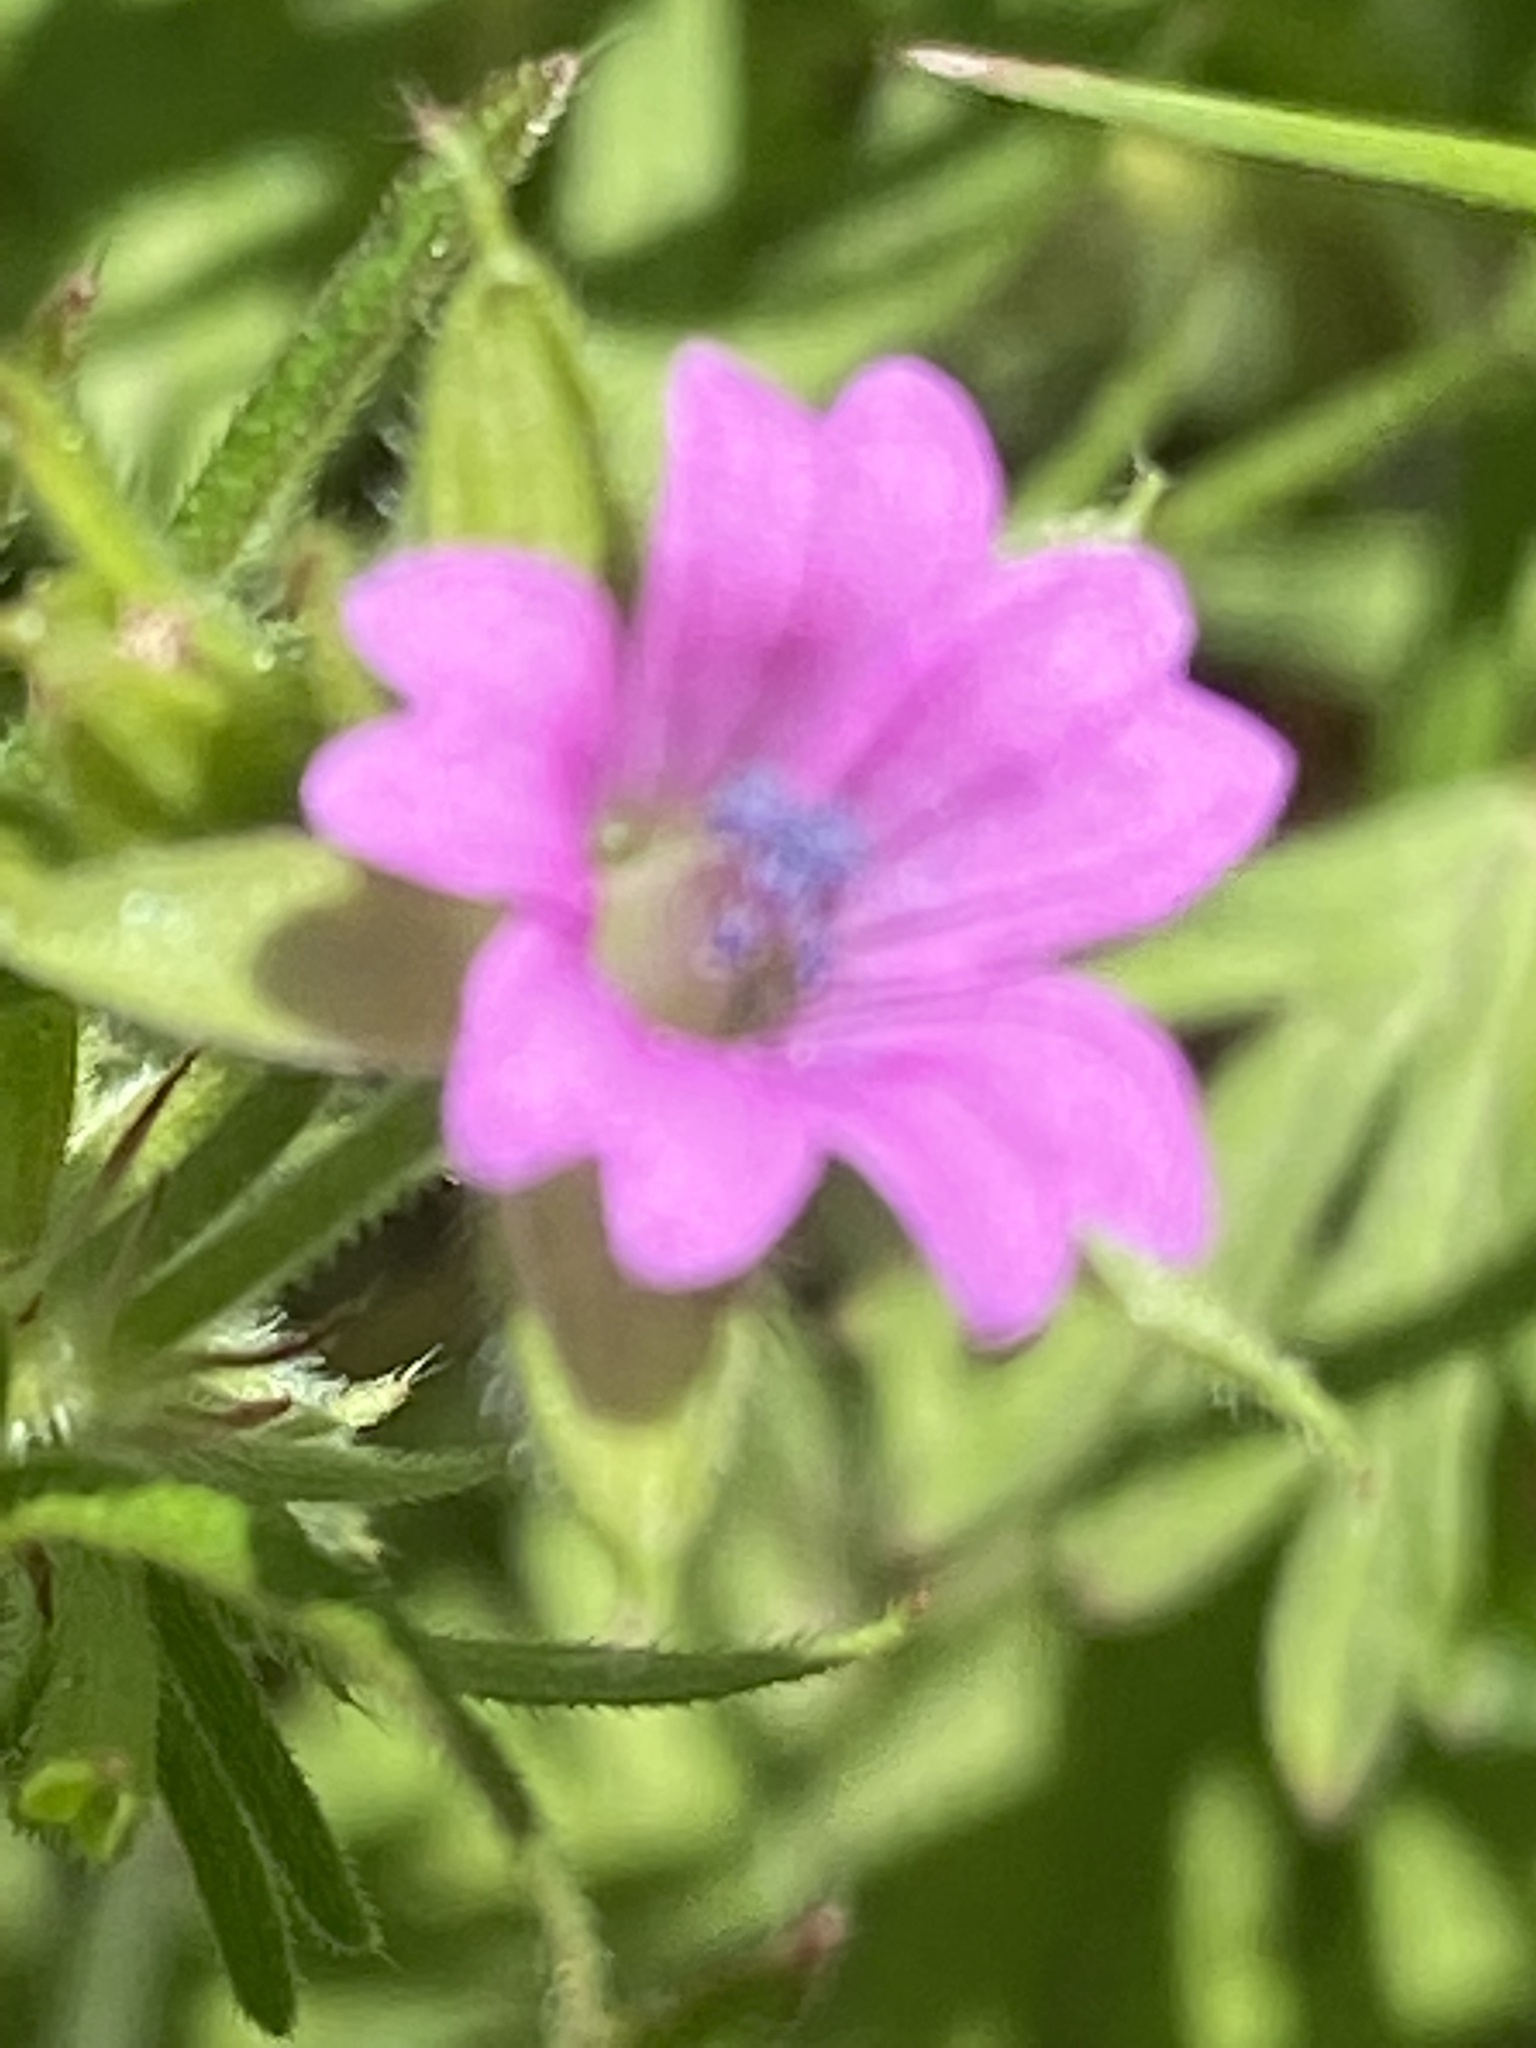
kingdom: Plantae
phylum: Tracheophyta
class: Magnoliopsida
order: Geraniales
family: Geraniaceae
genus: Geranium
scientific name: Geranium dissectum
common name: Cut-leaved crane's-bill
